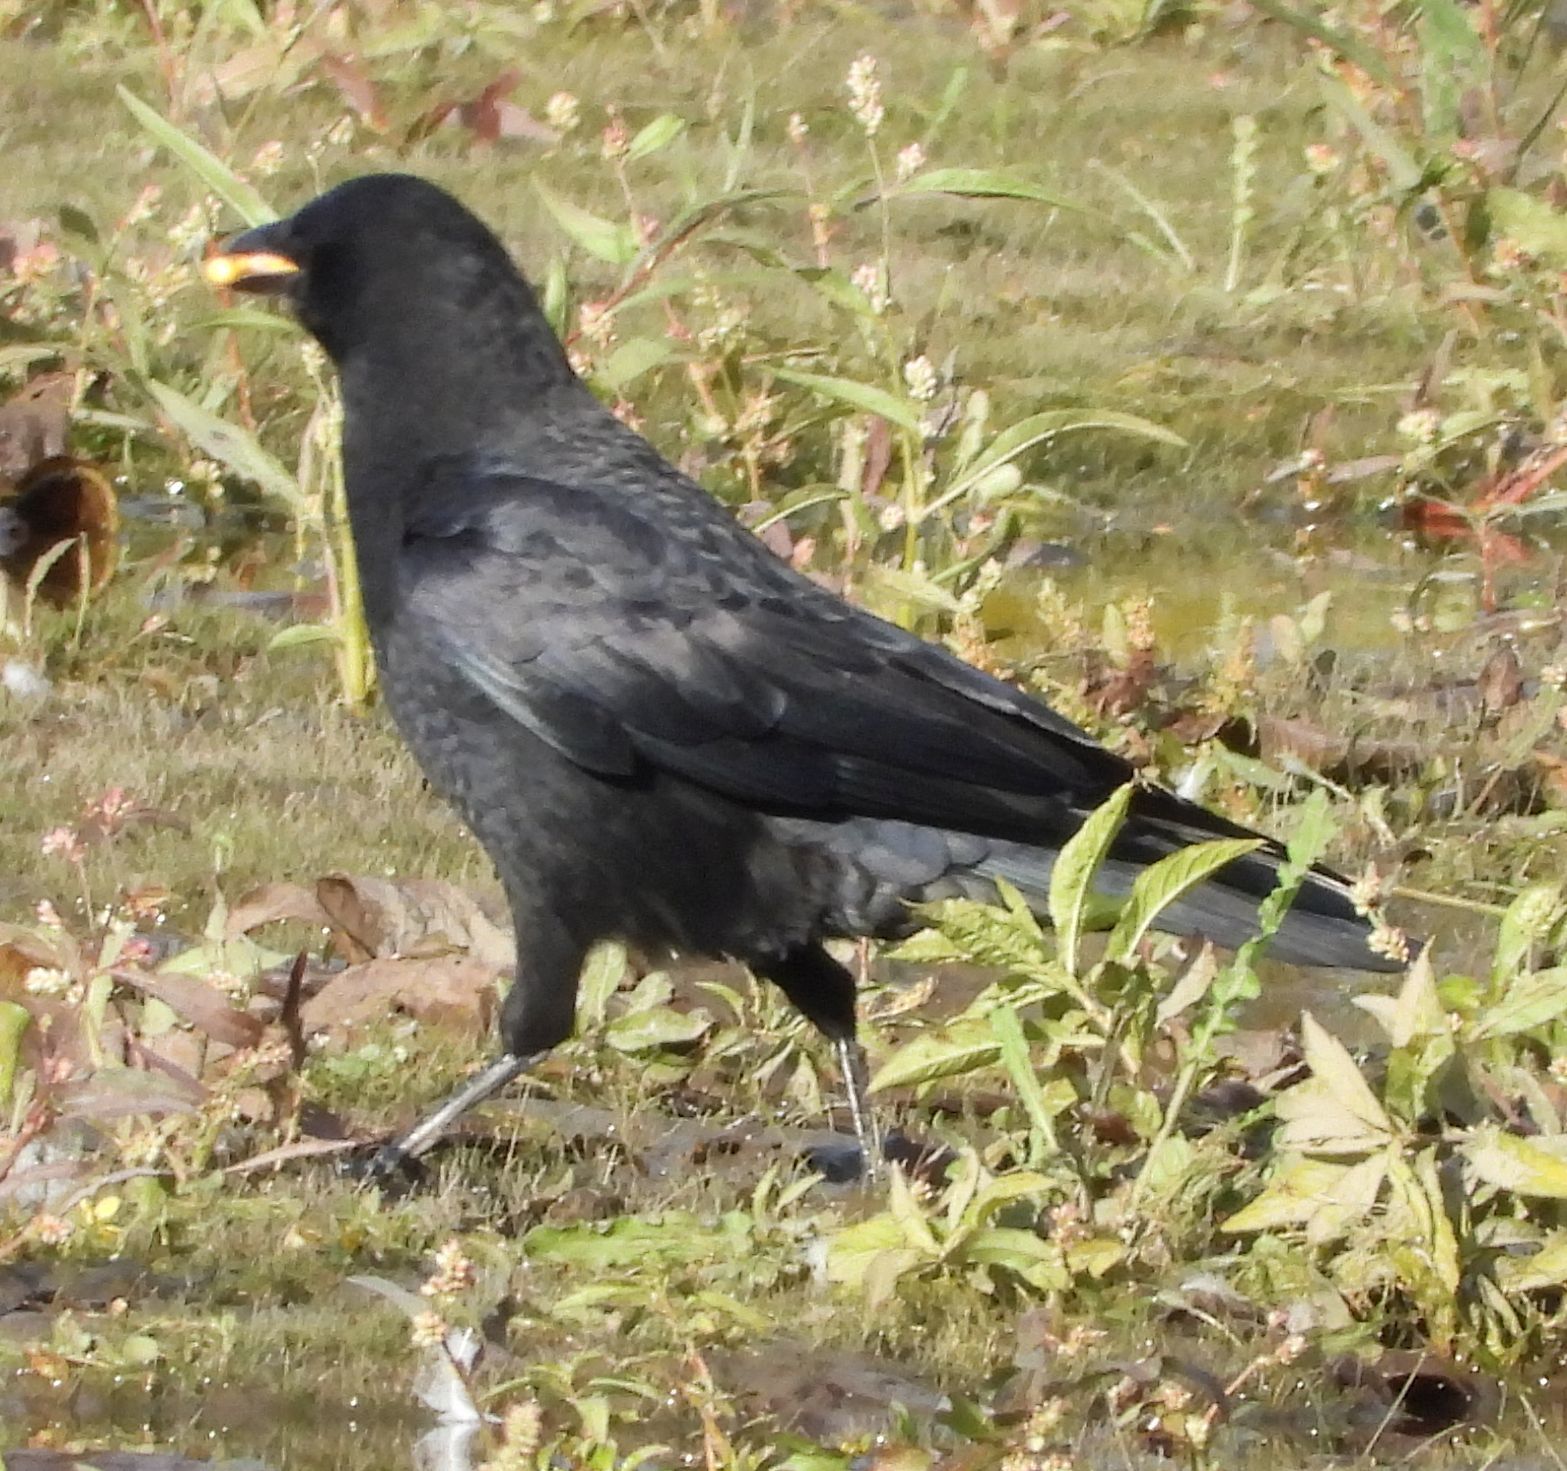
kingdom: Animalia
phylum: Chordata
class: Aves
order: Passeriformes
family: Corvidae
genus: Corvus
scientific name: Corvus brachyrhynchos
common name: American crow
